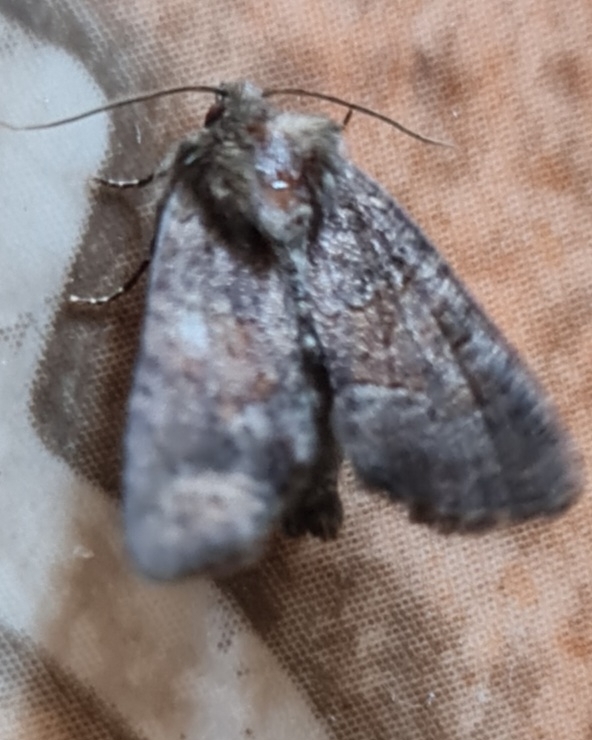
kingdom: Animalia
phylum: Arthropoda
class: Insecta
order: Lepidoptera
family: Noctuidae
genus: Oligia
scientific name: Oligia latruncula
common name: Tawny marbled minor
